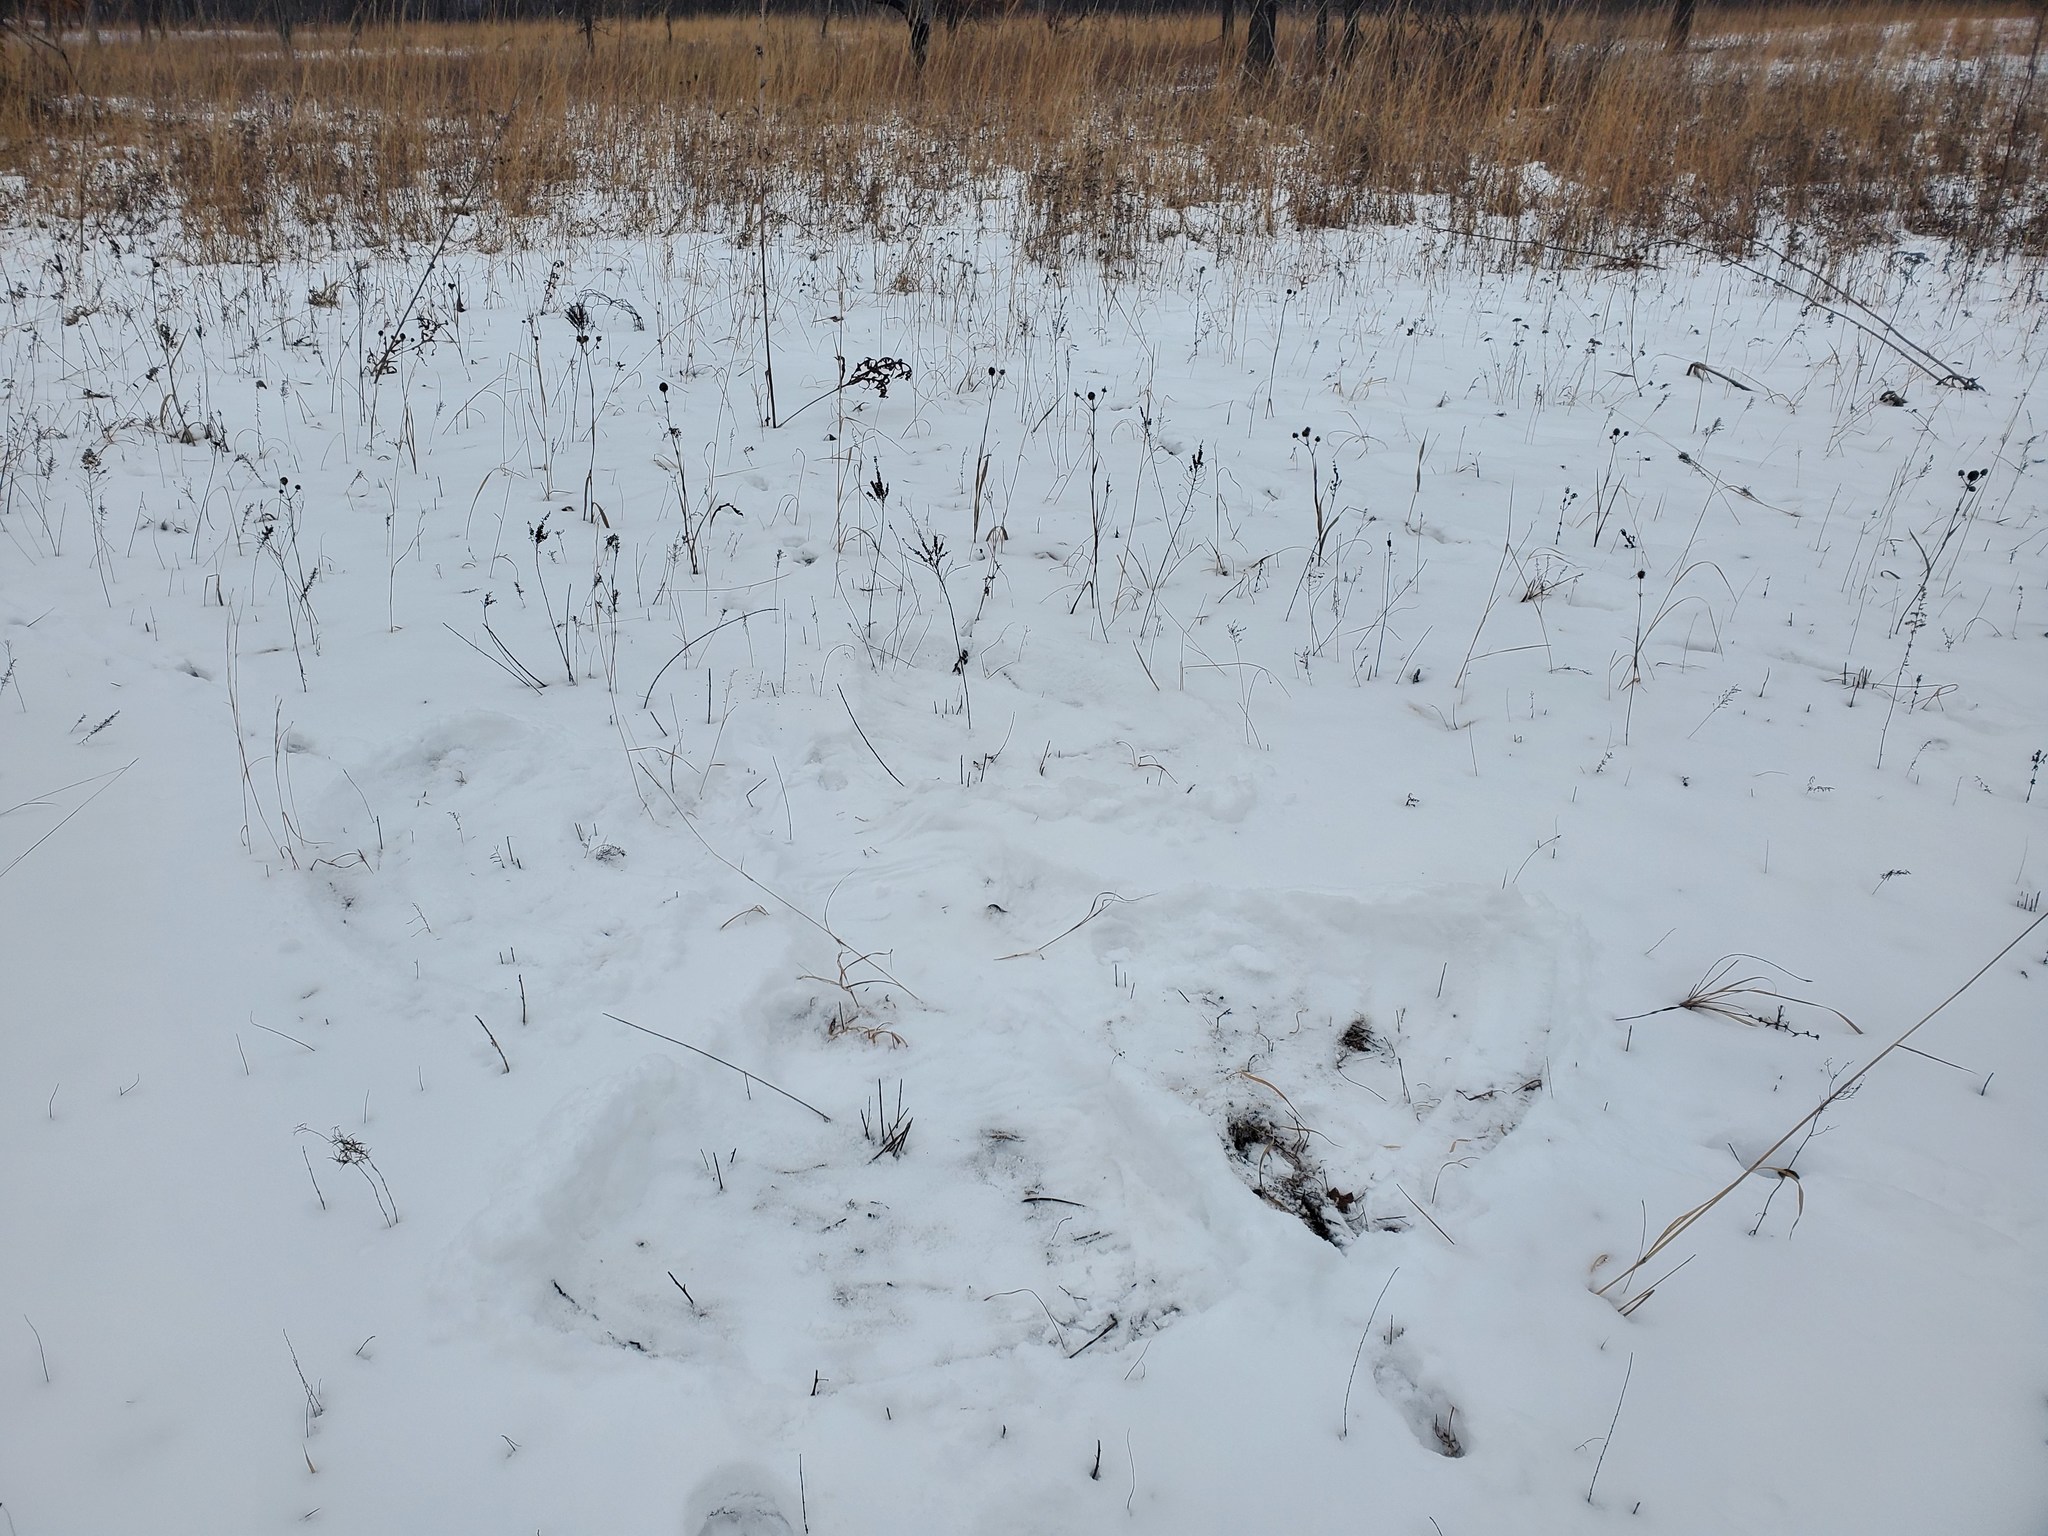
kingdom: Plantae
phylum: Tracheophyta
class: Magnoliopsida
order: Fabales
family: Fabaceae
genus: Amorpha
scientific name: Amorpha canescens
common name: Leadplant
